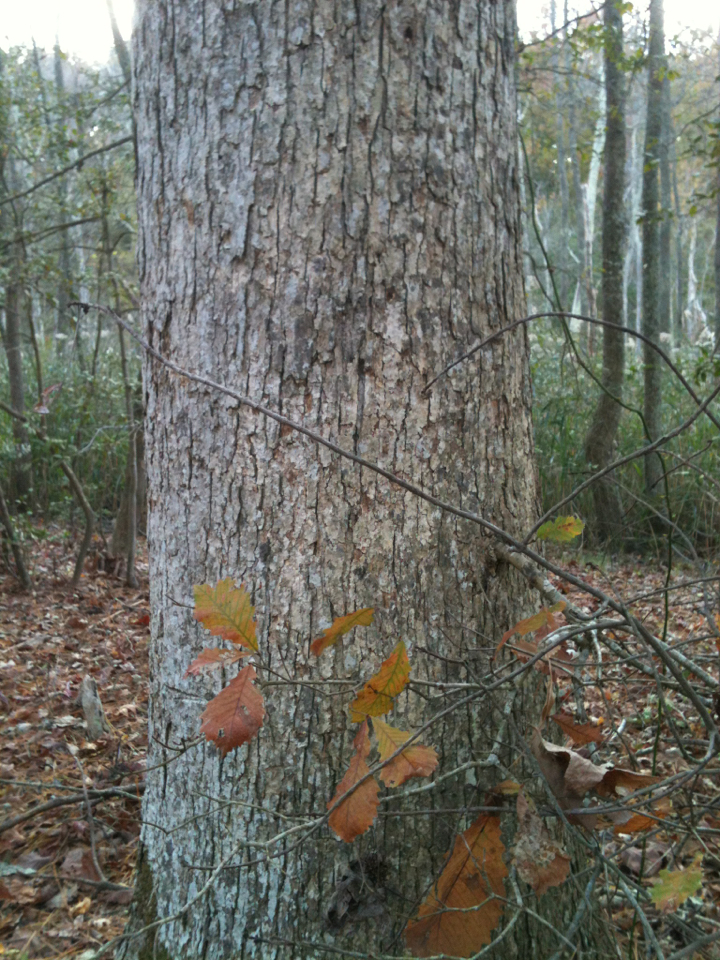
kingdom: Plantae
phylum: Tracheophyta
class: Magnoliopsida
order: Fagales
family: Fagaceae
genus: Quercus
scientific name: Quercus michauxii
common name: Swamp chestnut oak
